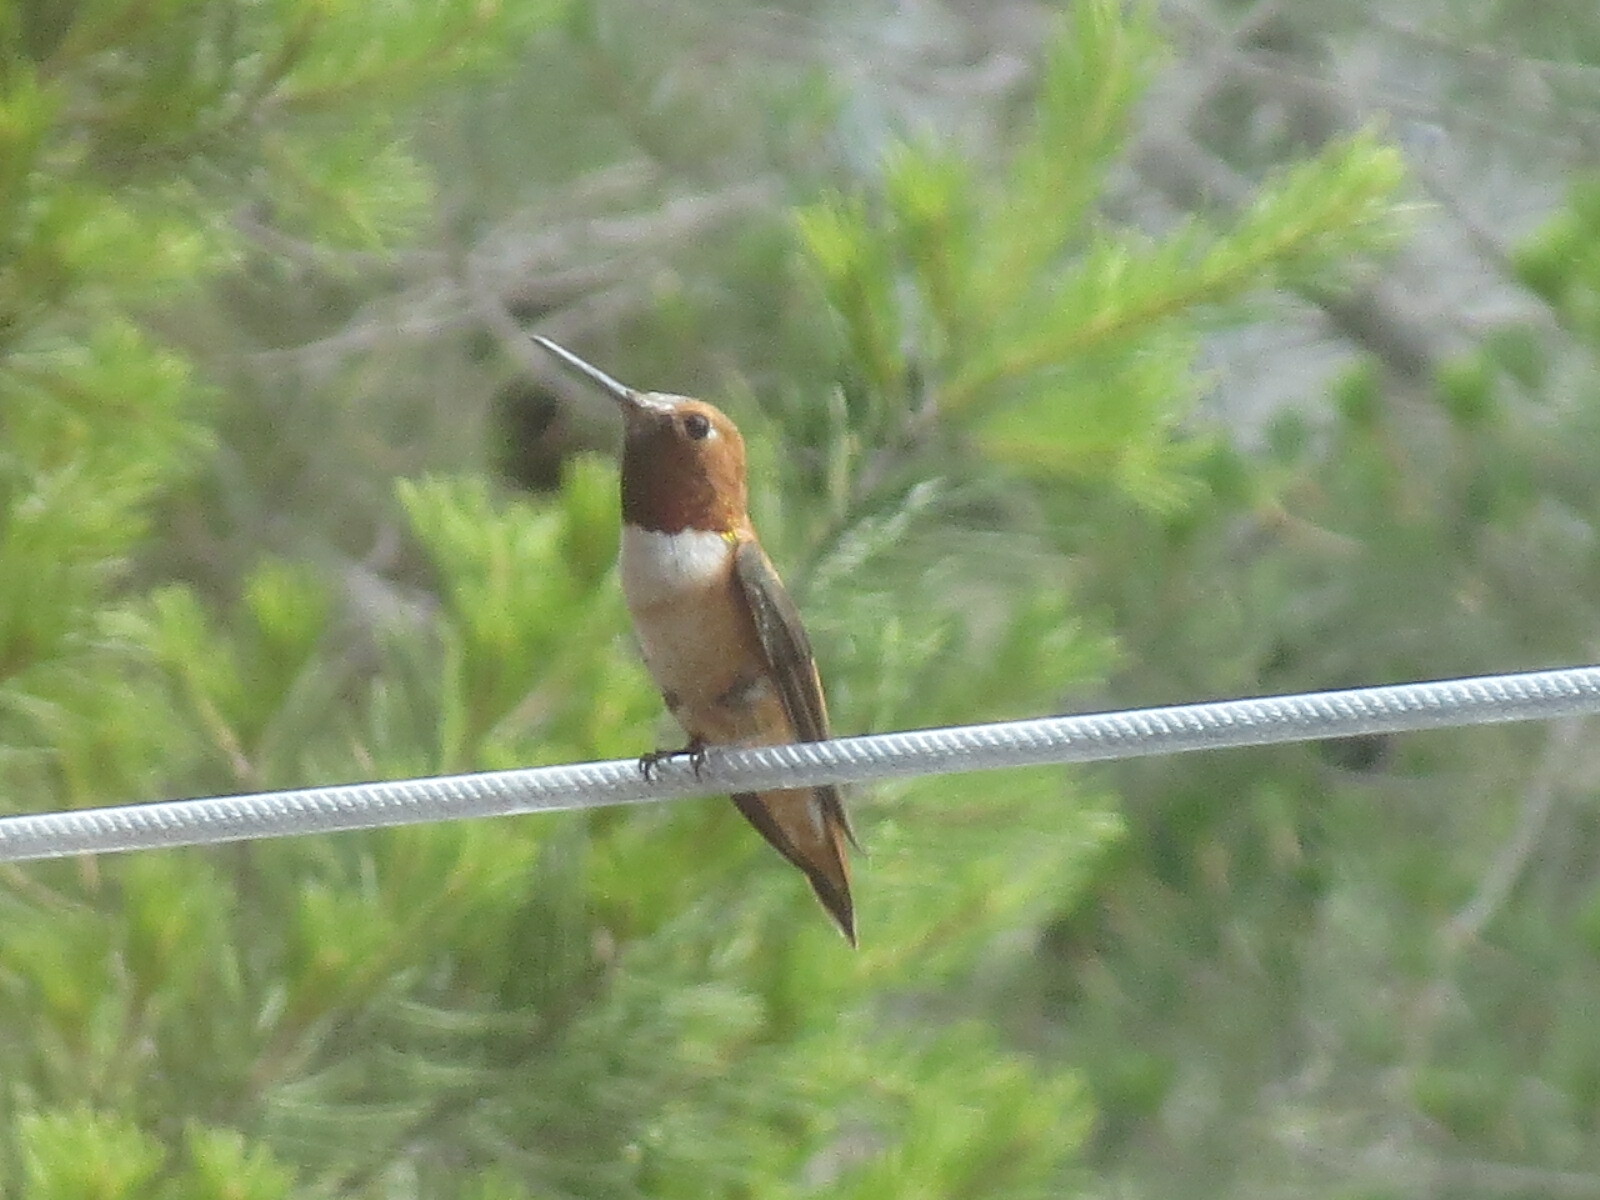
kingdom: Animalia
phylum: Chordata
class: Aves
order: Apodiformes
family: Trochilidae
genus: Selasphorus
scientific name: Selasphorus rufus
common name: Rufous hummingbird
